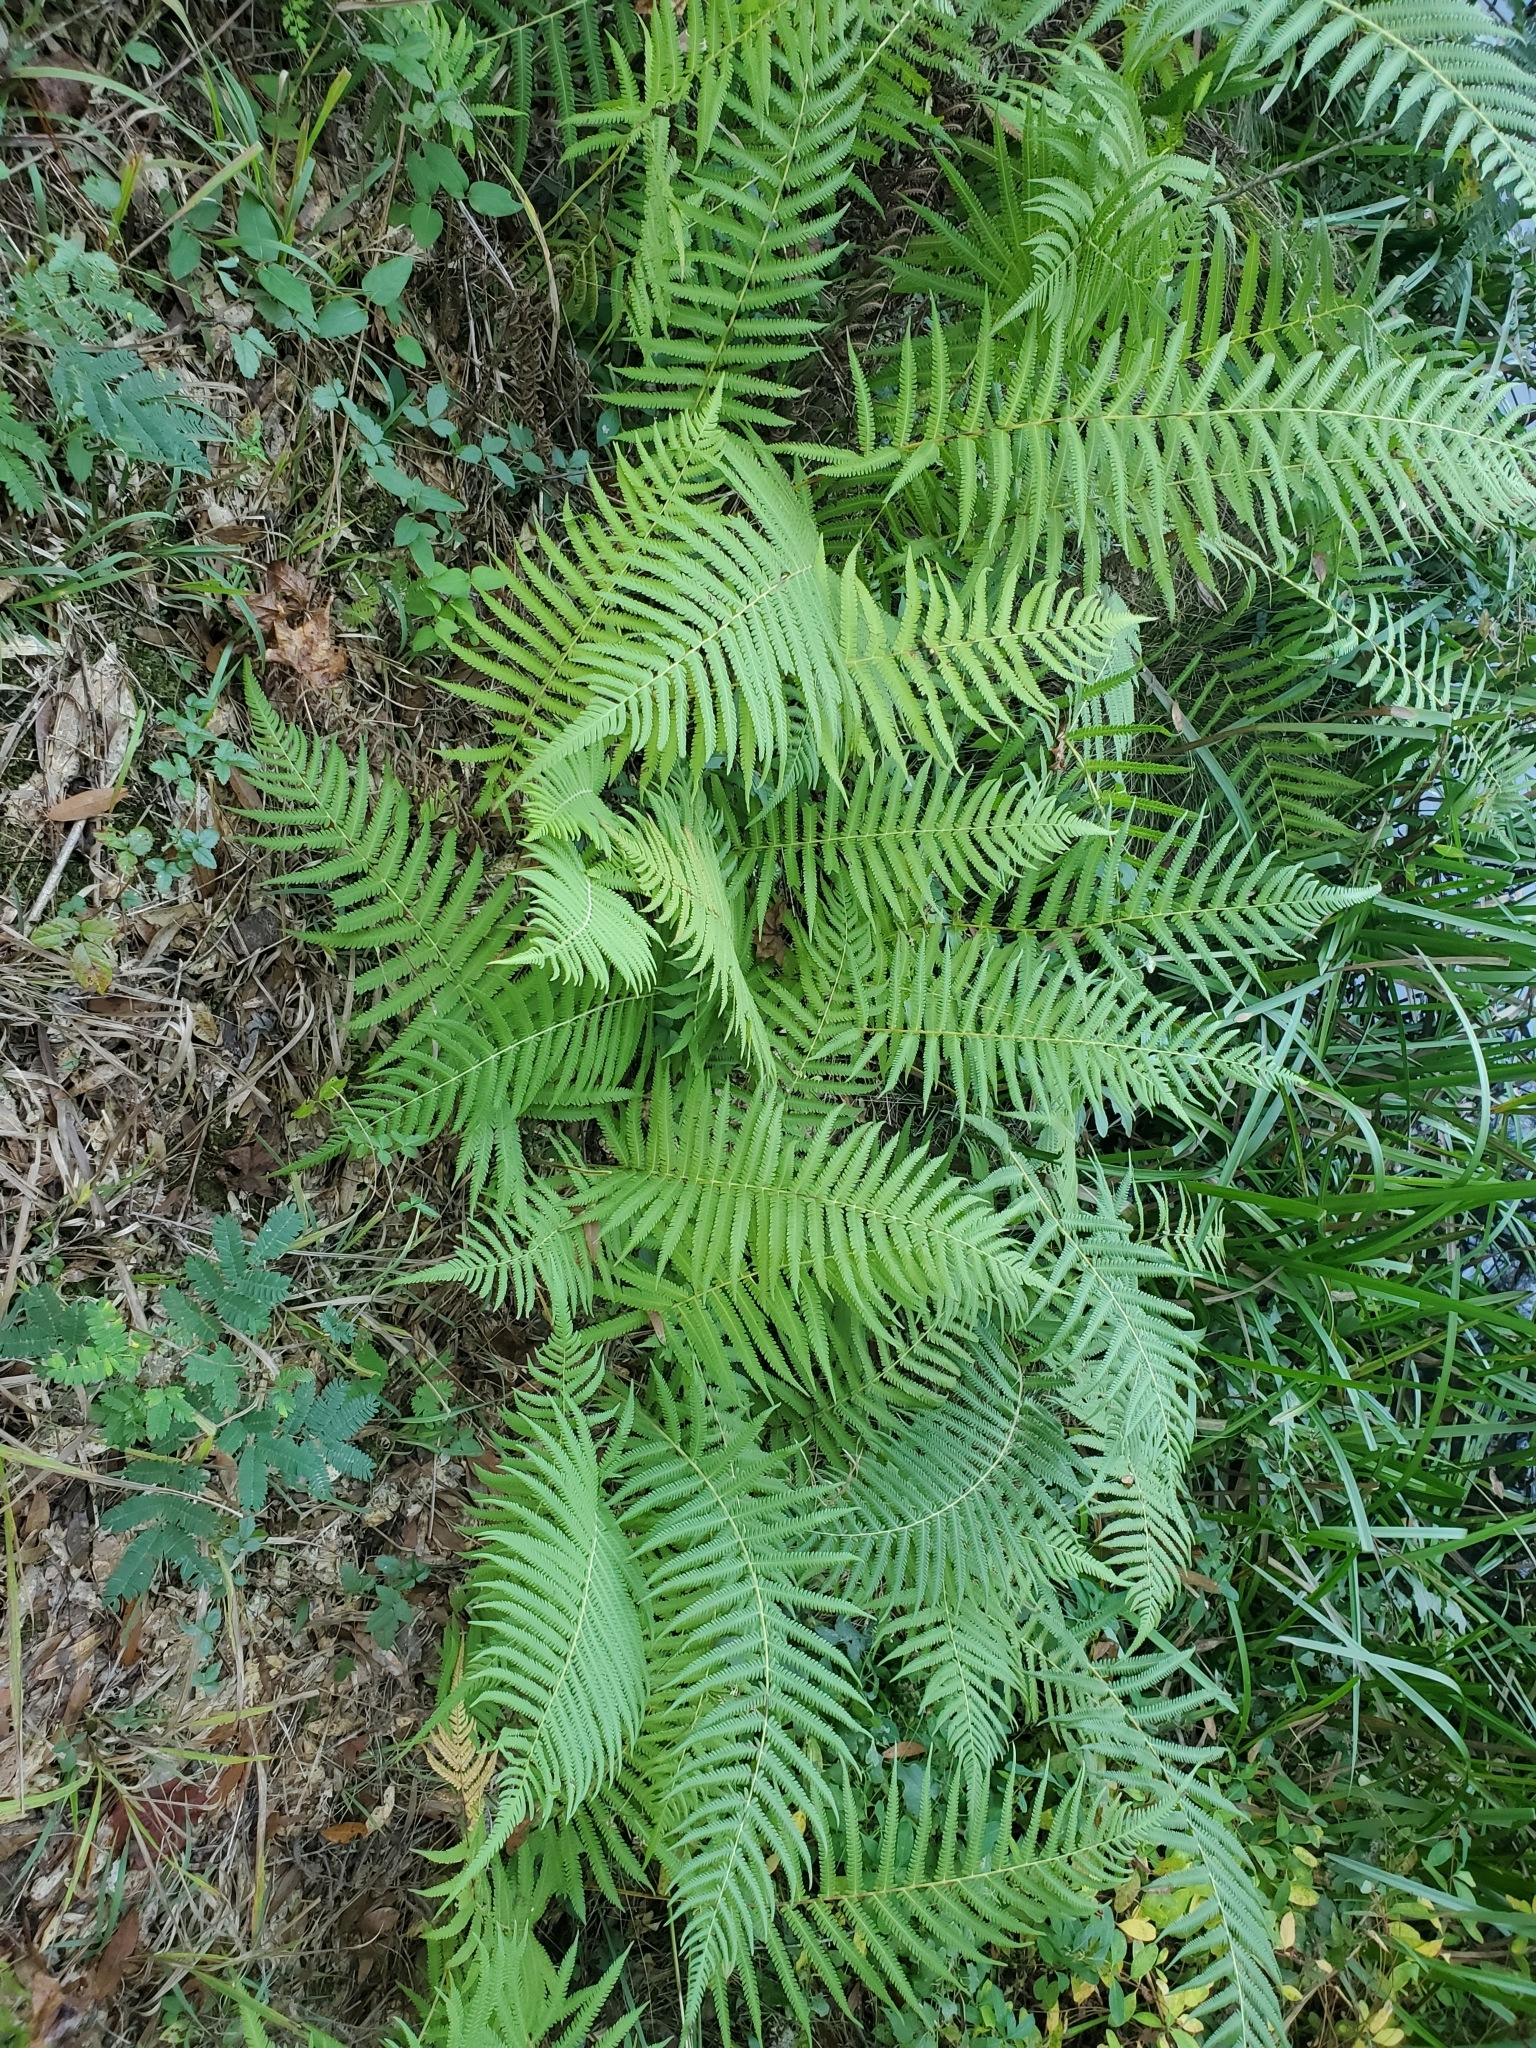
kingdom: Plantae
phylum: Tracheophyta
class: Polypodiopsida
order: Polypodiales
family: Thelypteridaceae
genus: Pelazoneuron
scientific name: Pelazoneuron kunthii
